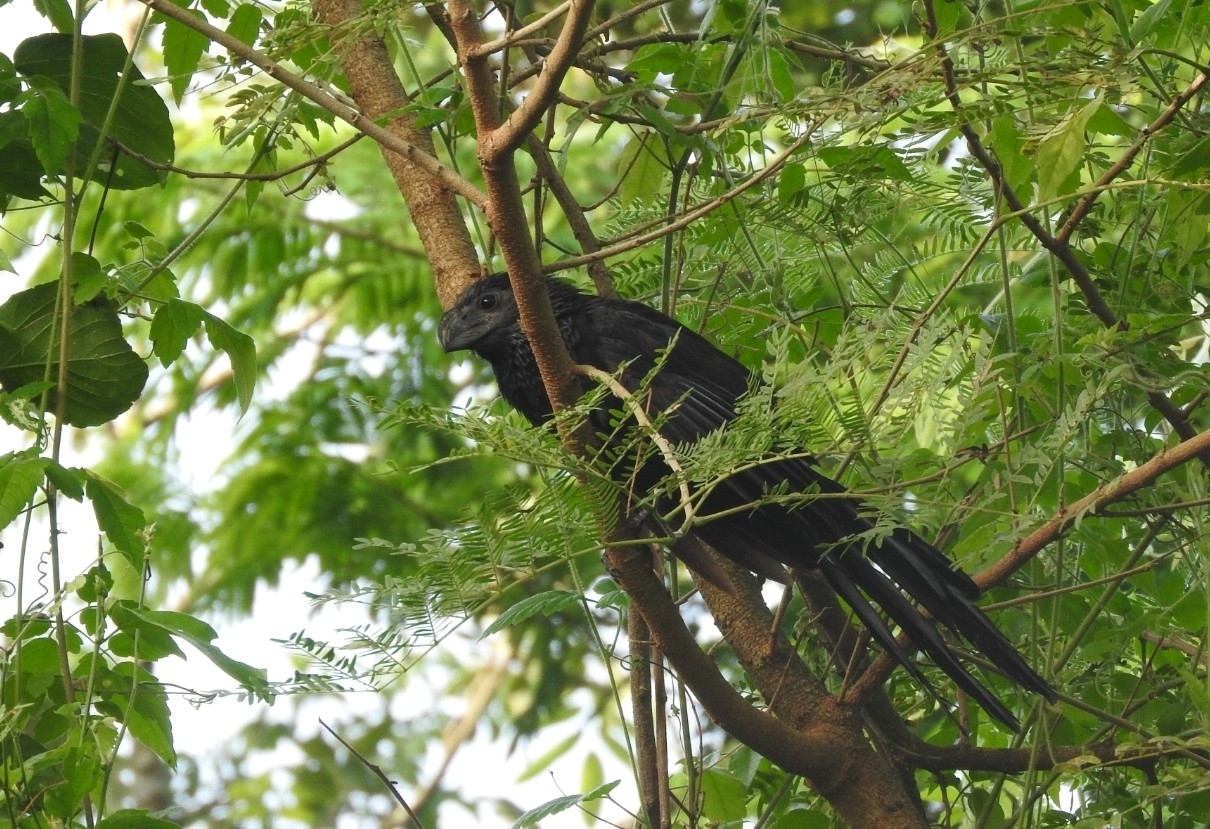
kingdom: Animalia
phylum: Chordata
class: Aves
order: Cuculiformes
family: Cuculidae
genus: Crotophaga
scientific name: Crotophaga sulcirostris
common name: Groove-billed ani
